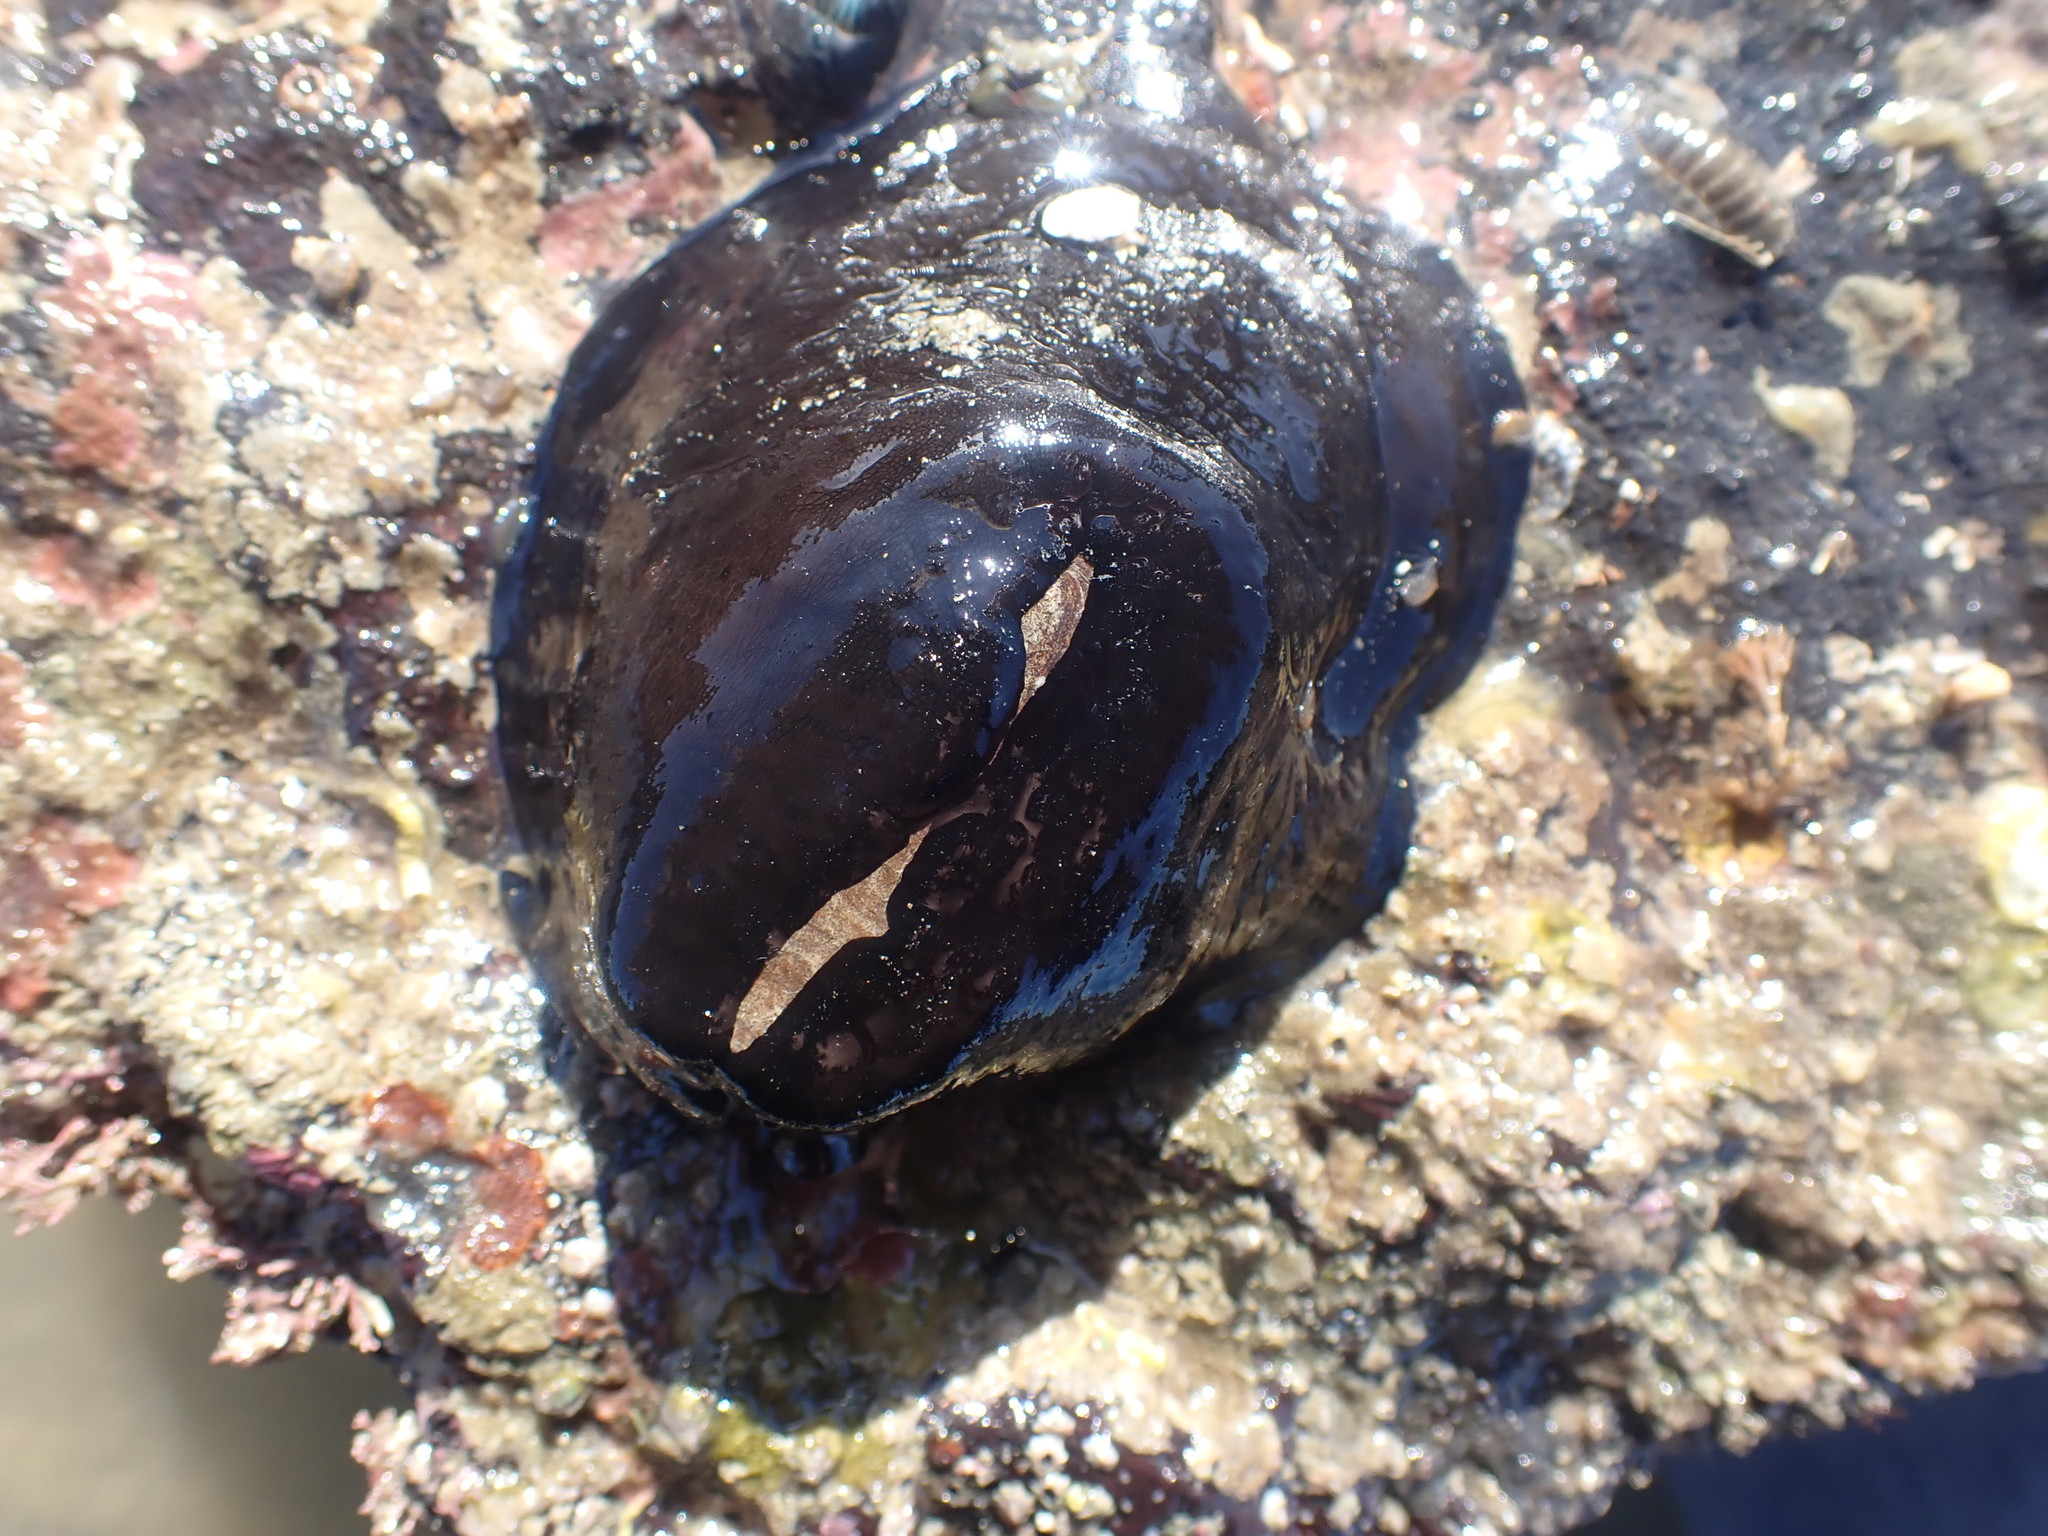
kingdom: Animalia
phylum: Mollusca
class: Gastropoda
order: Lepetellida
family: Fissurellidae
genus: Scutus
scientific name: Scutus breviculus
